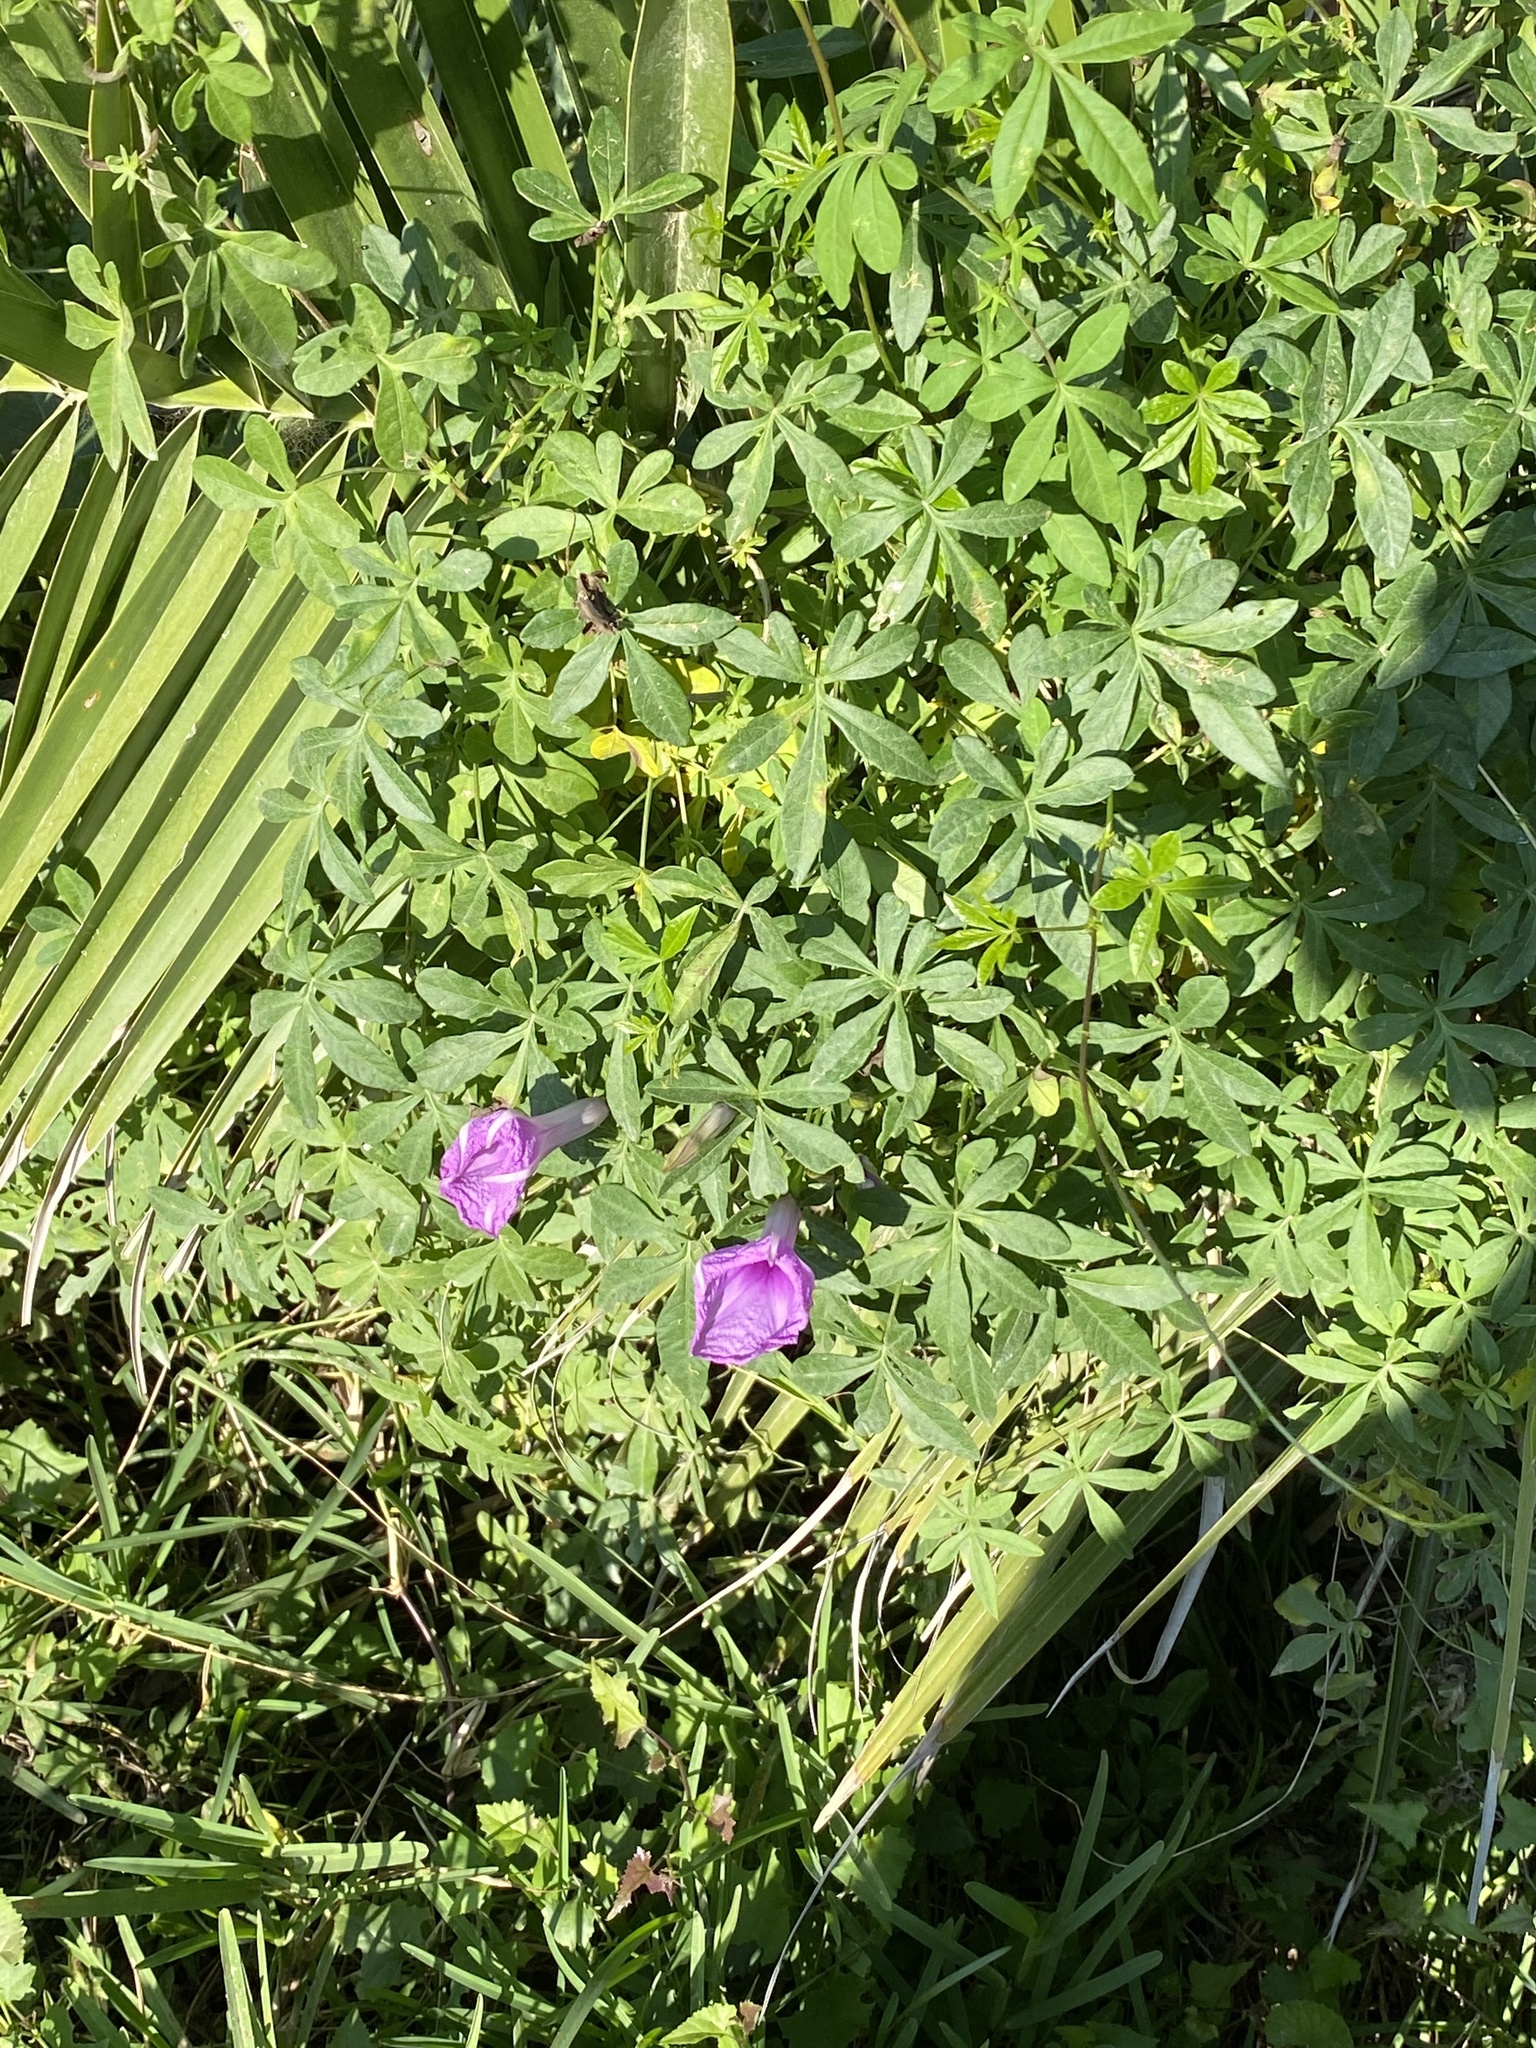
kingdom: Plantae
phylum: Tracheophyta
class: Magnoliopsida
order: Solanales
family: Convolvulaceae
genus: Ipomoea
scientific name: Ipomoea cairica
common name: Mile a minute vine
